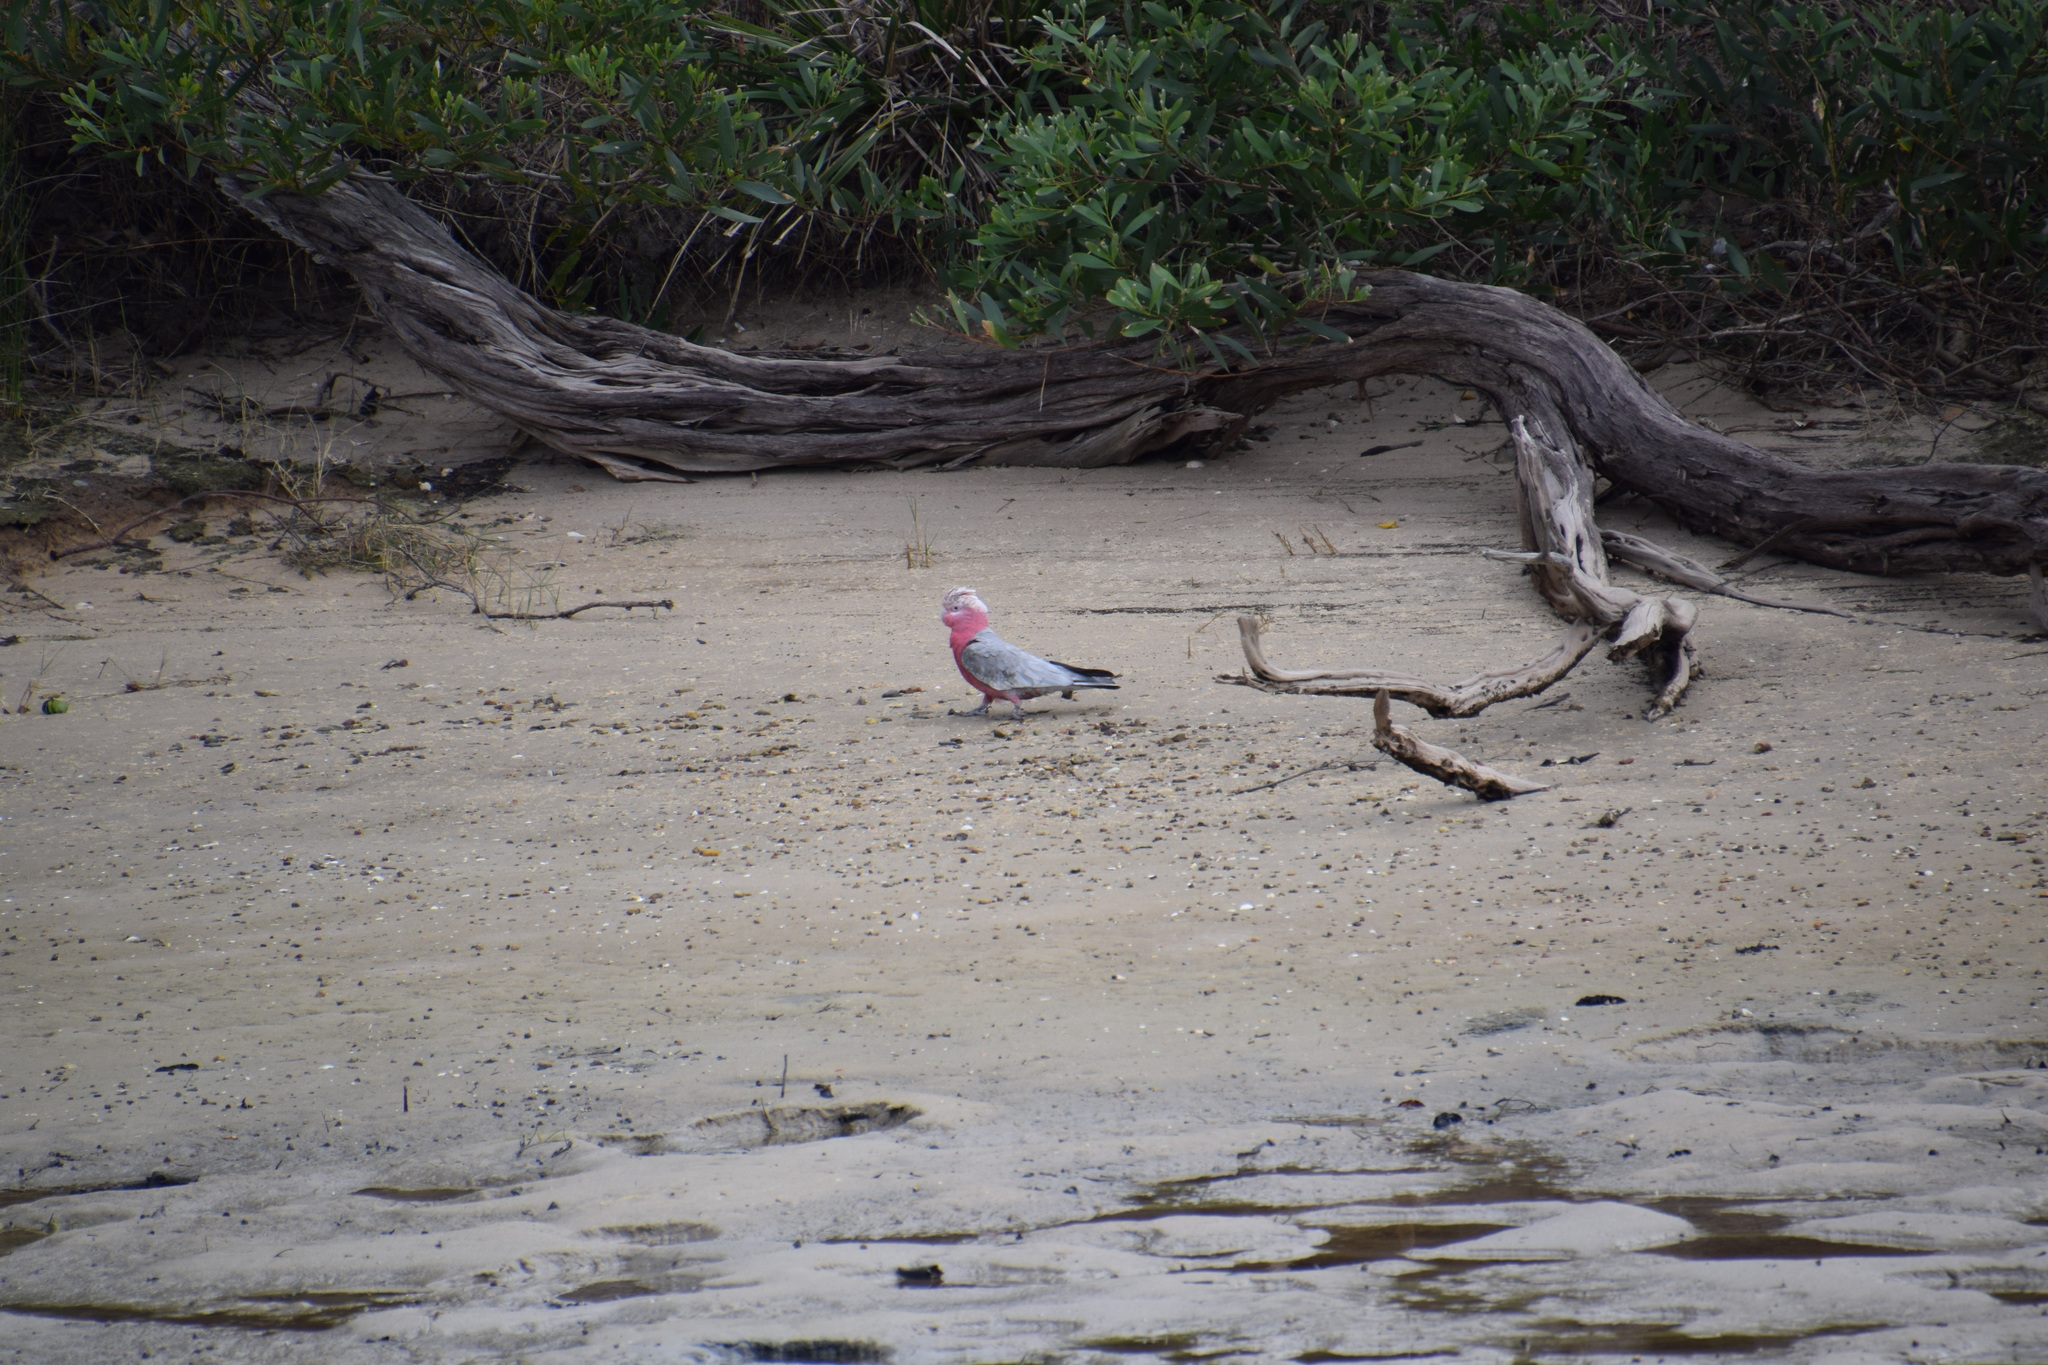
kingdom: Animalia
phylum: Chordata
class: Aves
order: Psittaciformes
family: Psittacidae
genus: Eolophus
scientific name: Eolophus roseicapilla
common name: Galah
